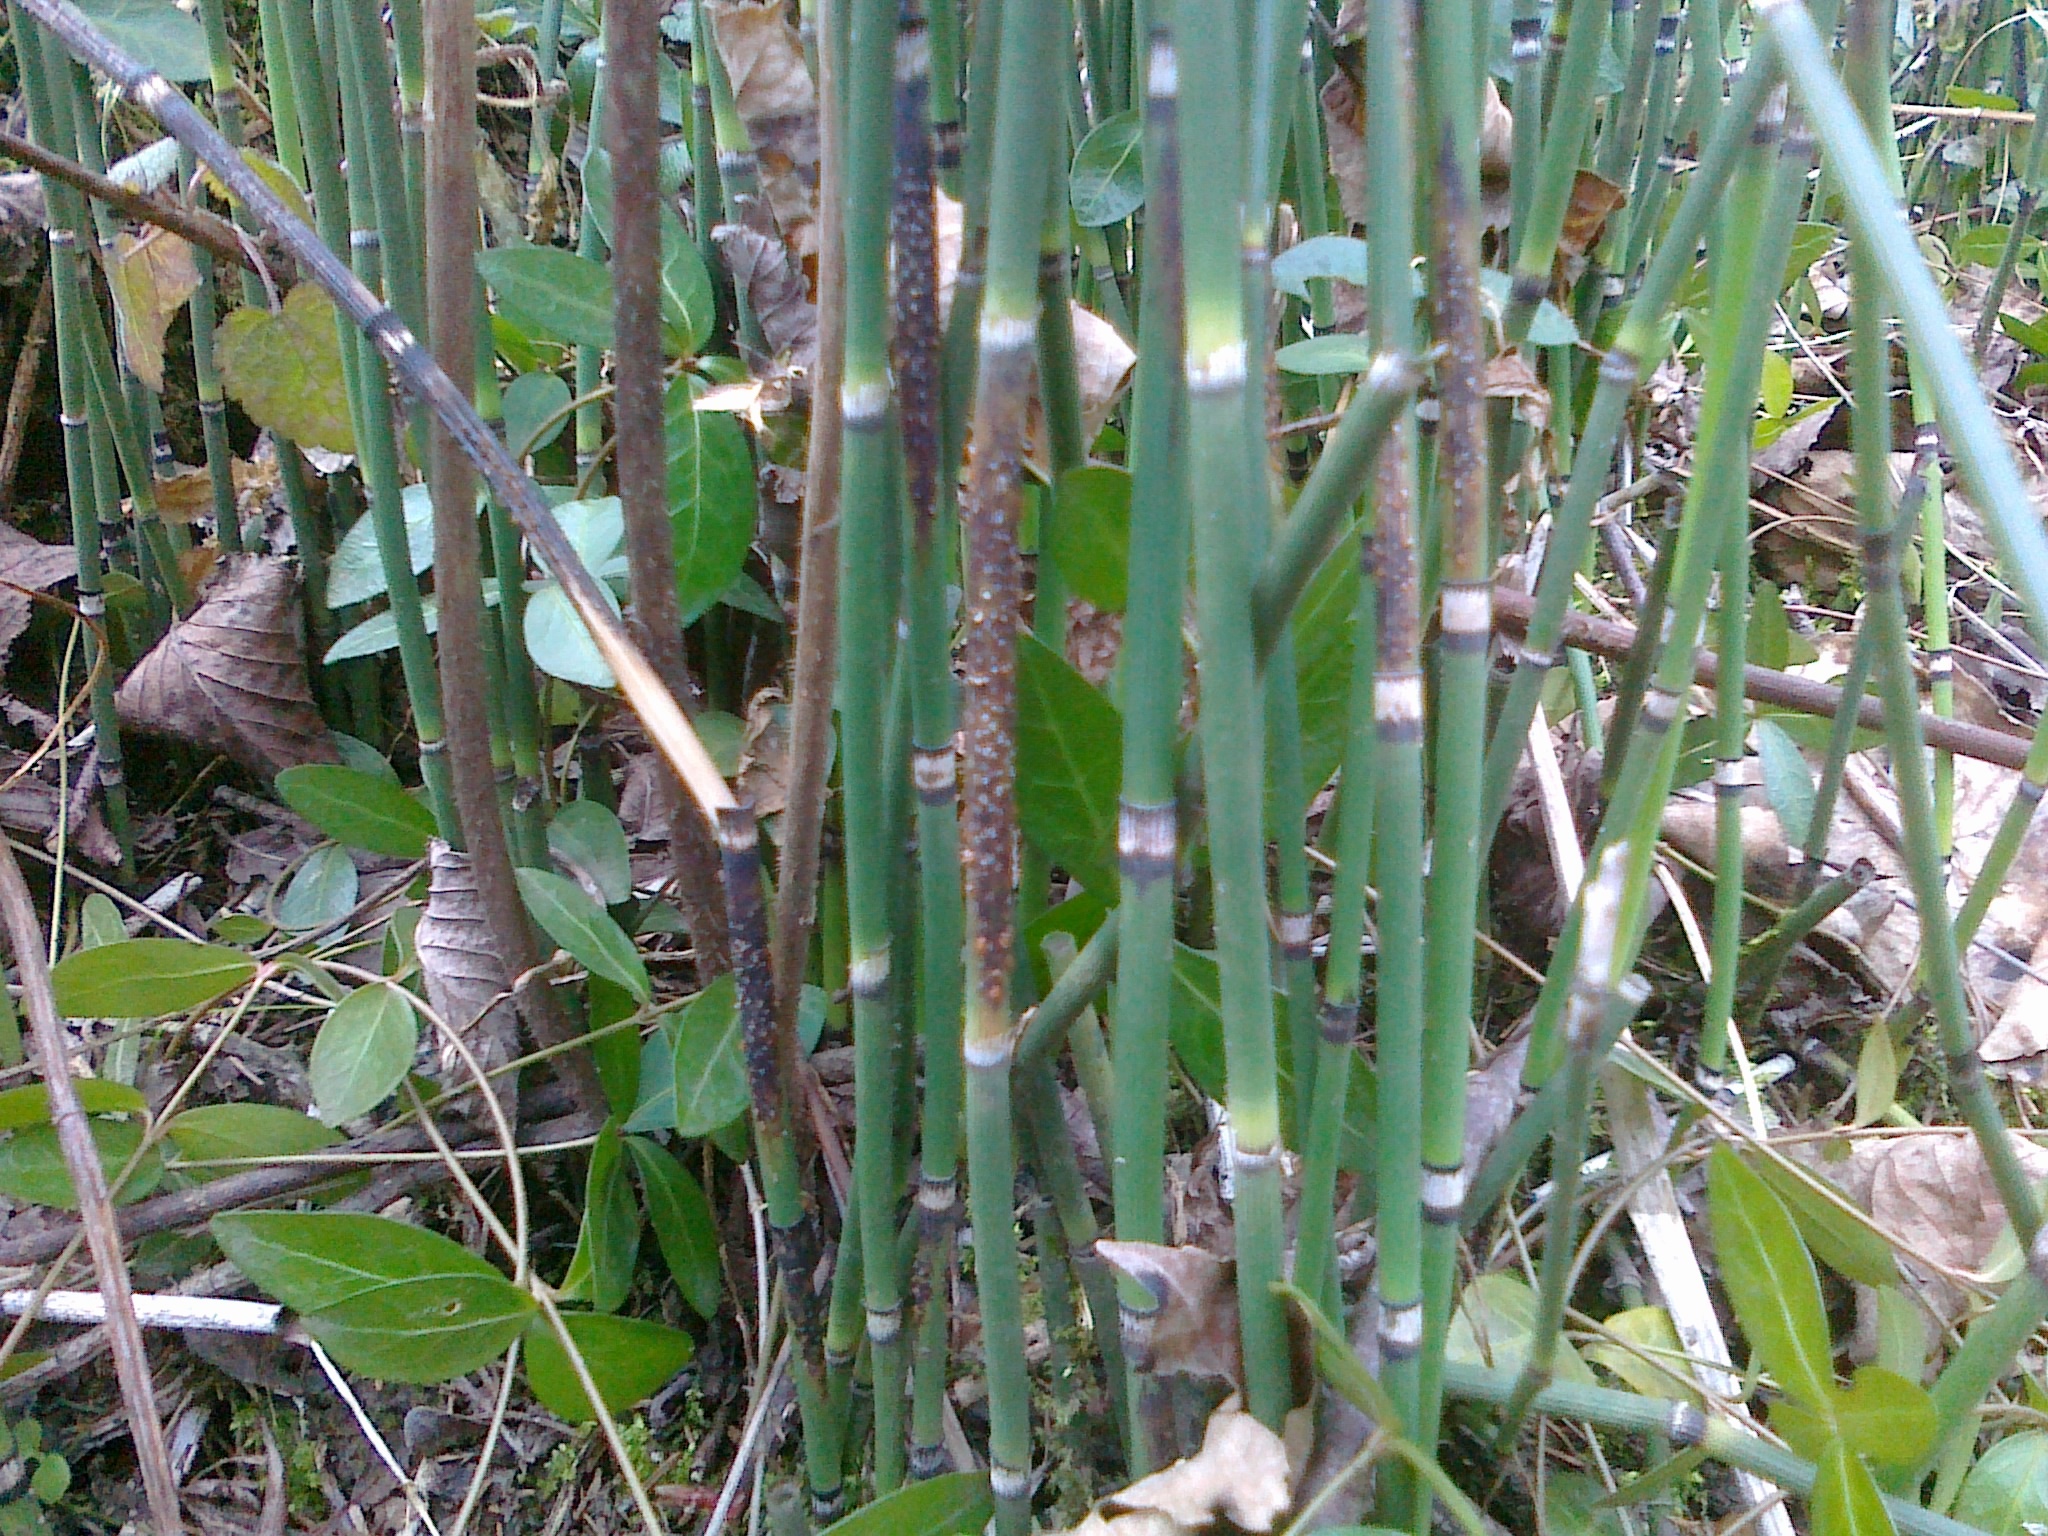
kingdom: Fungi
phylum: Ascomycota
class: Leotiomycetes
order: Helotiales
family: Helotiaceae
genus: Stamnaria
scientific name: Stamnaria americana
